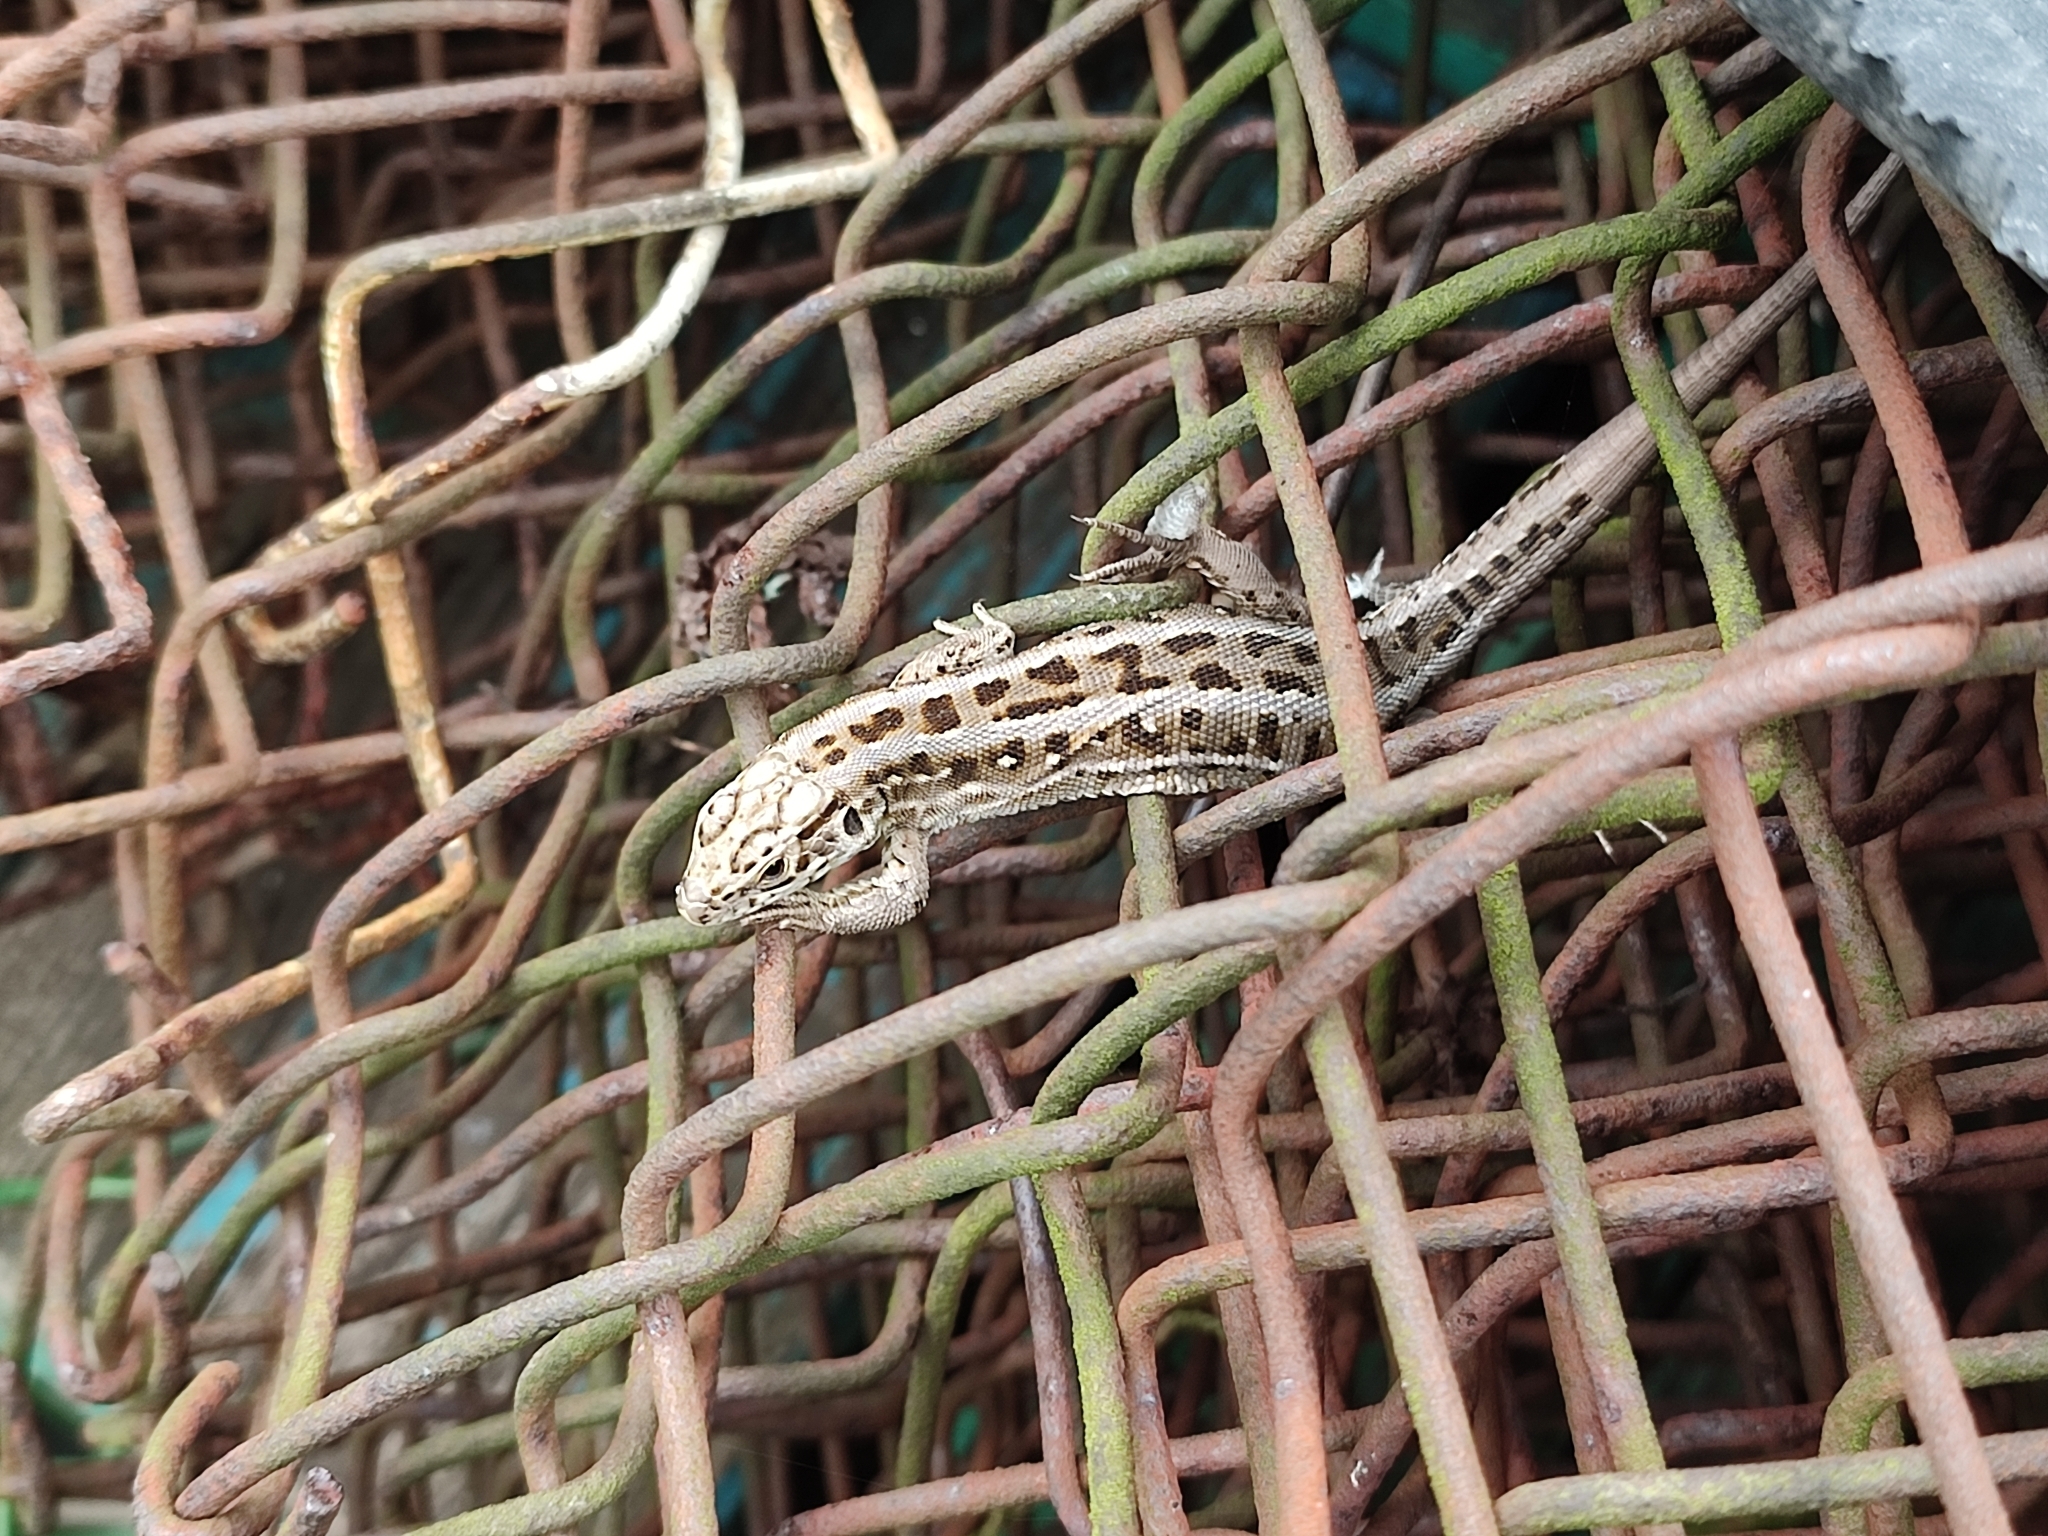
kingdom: Animalia
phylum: Chordata
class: Squamata
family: Lacertidae
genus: Lacerta
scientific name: Lacerta agilis
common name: Sand lizard
